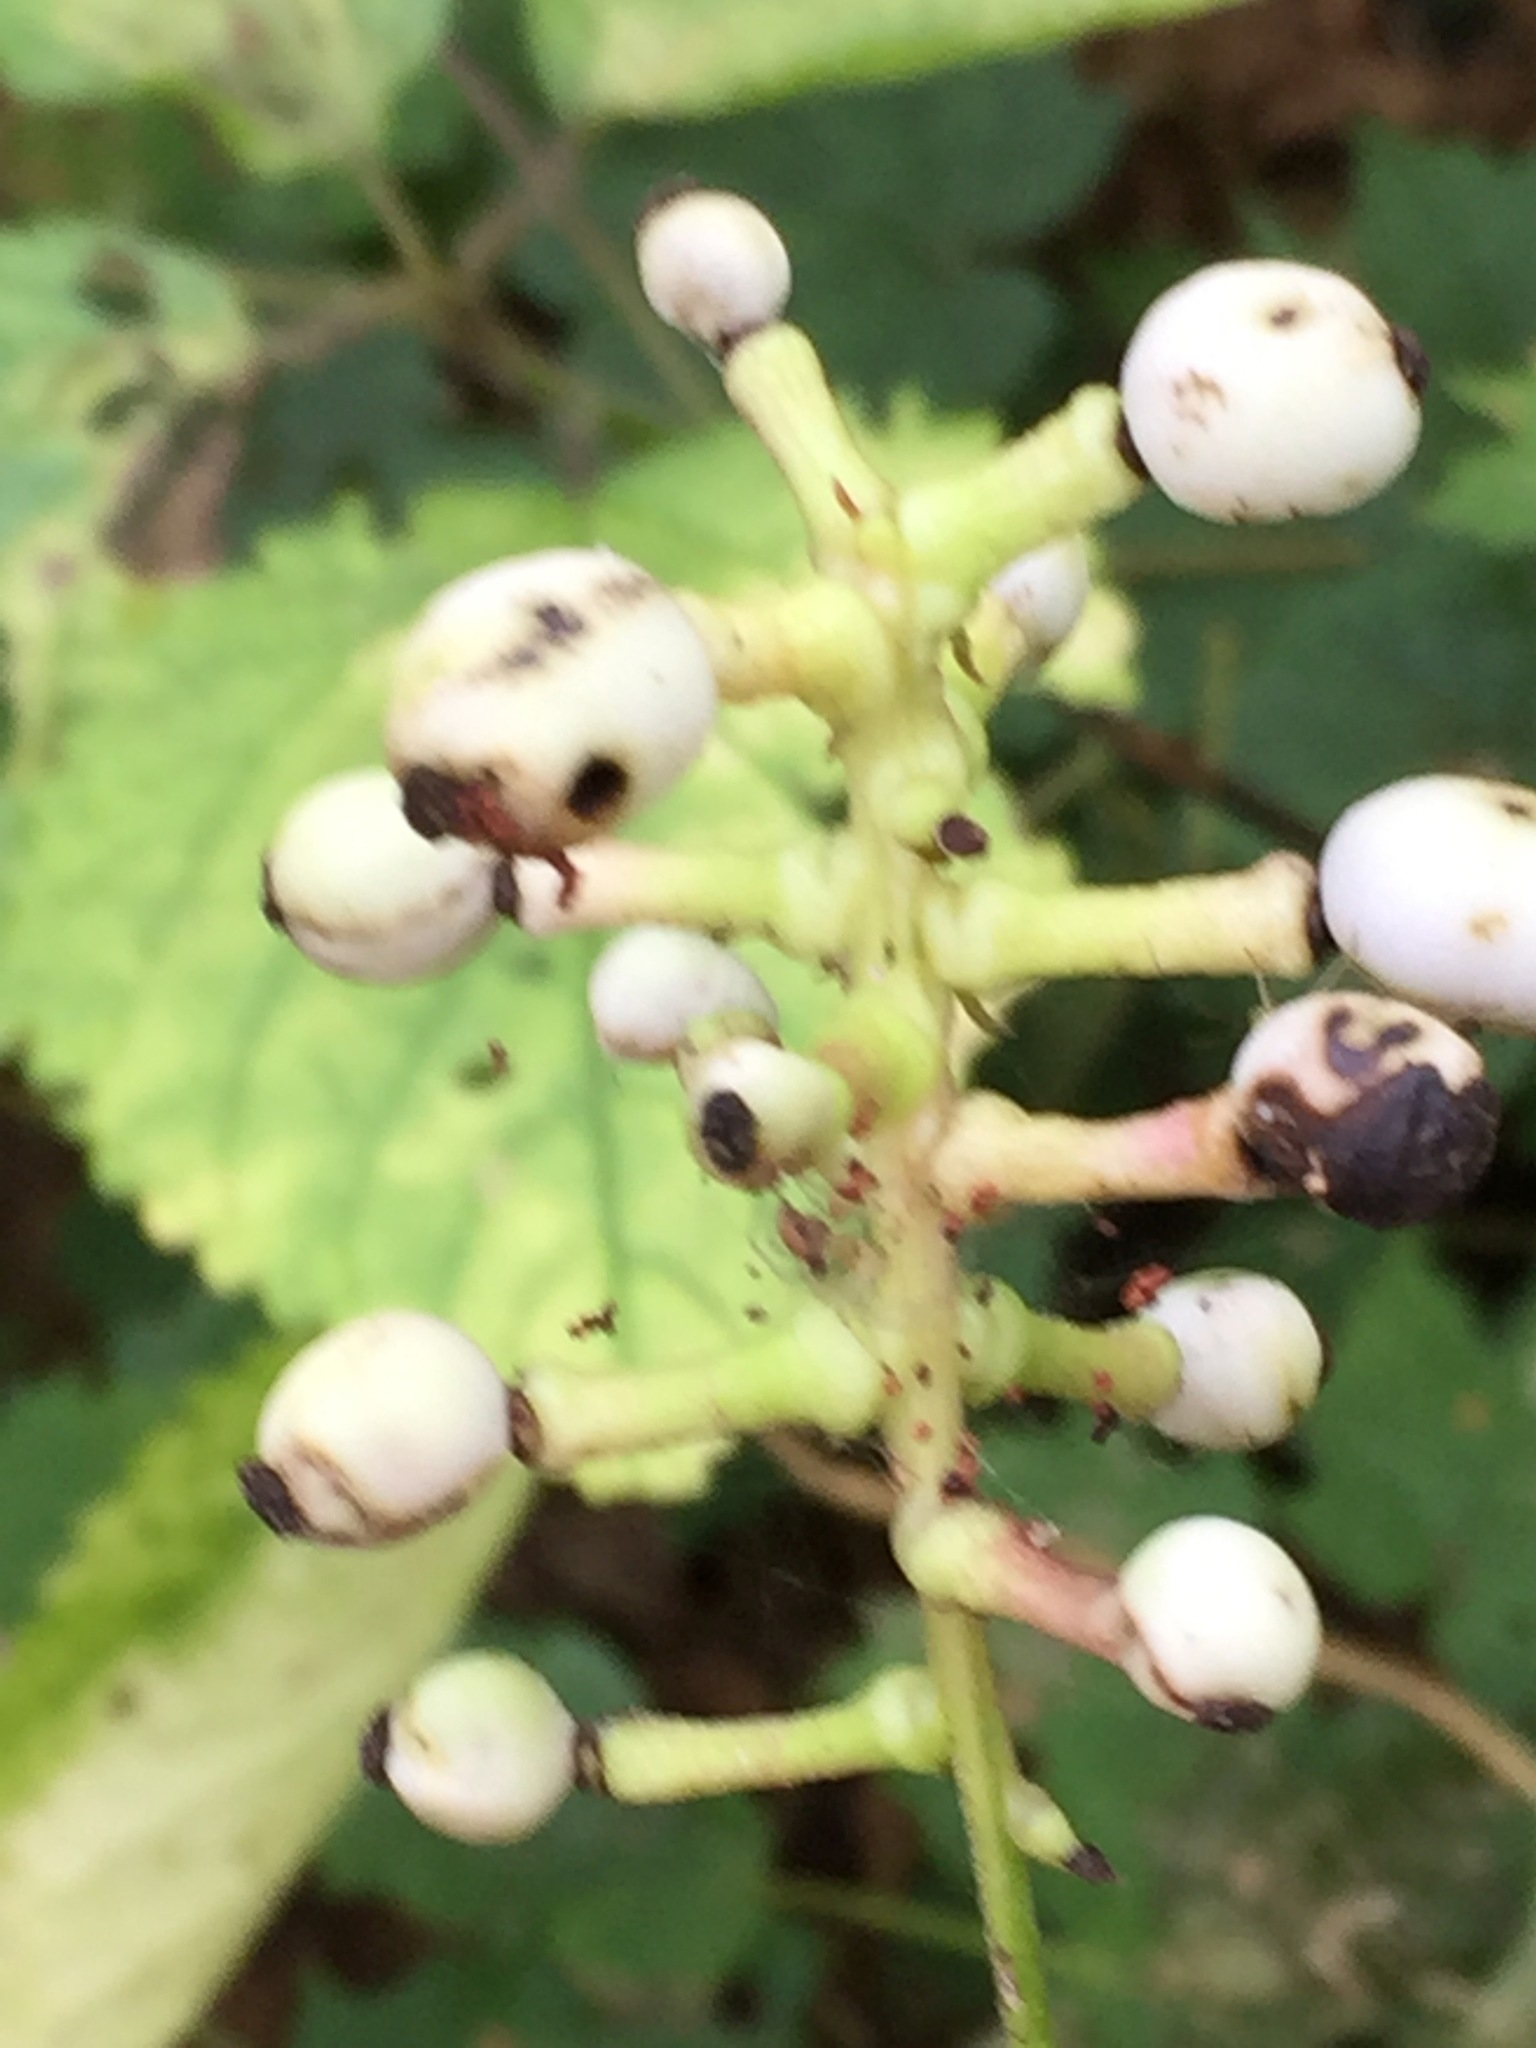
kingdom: Plantae
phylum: Tracheophyta
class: Magnoliopsida
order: Ranunculales
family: Ranunculaceae
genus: Actaea
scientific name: Actaea pachypoda
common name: Doll's-eyes
